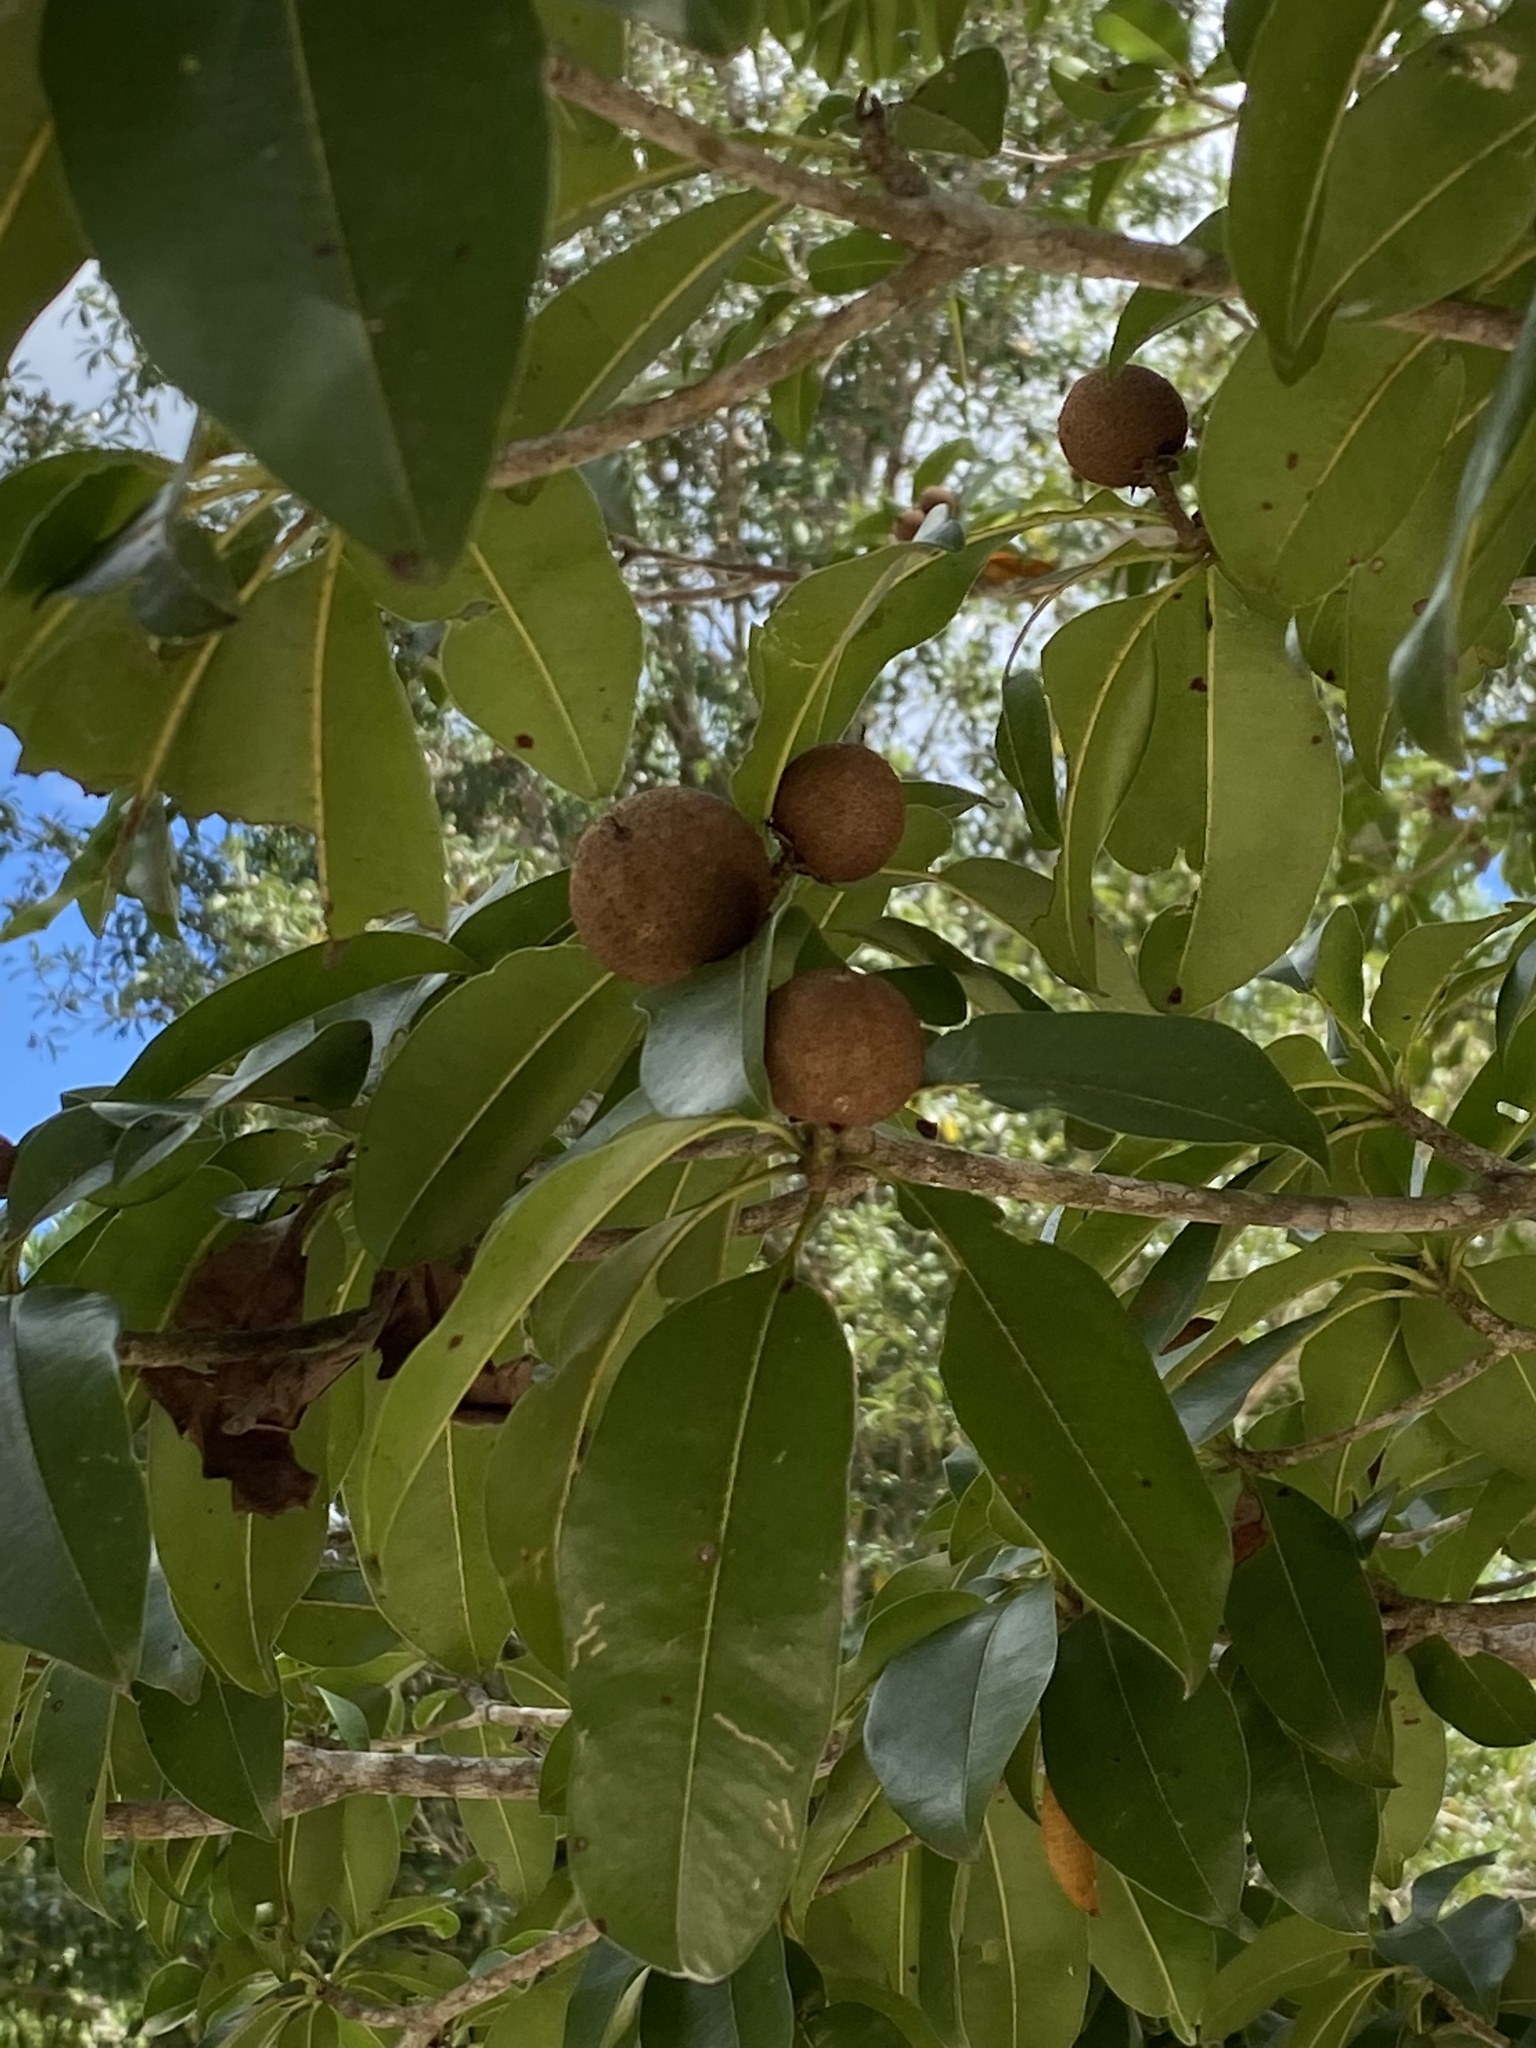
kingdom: Plantae
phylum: Tracheophyta
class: Magnoliopsida
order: Ericales
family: Sapotaceae
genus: Manilkara
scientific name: Manilkara zapota
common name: Sapodilla
